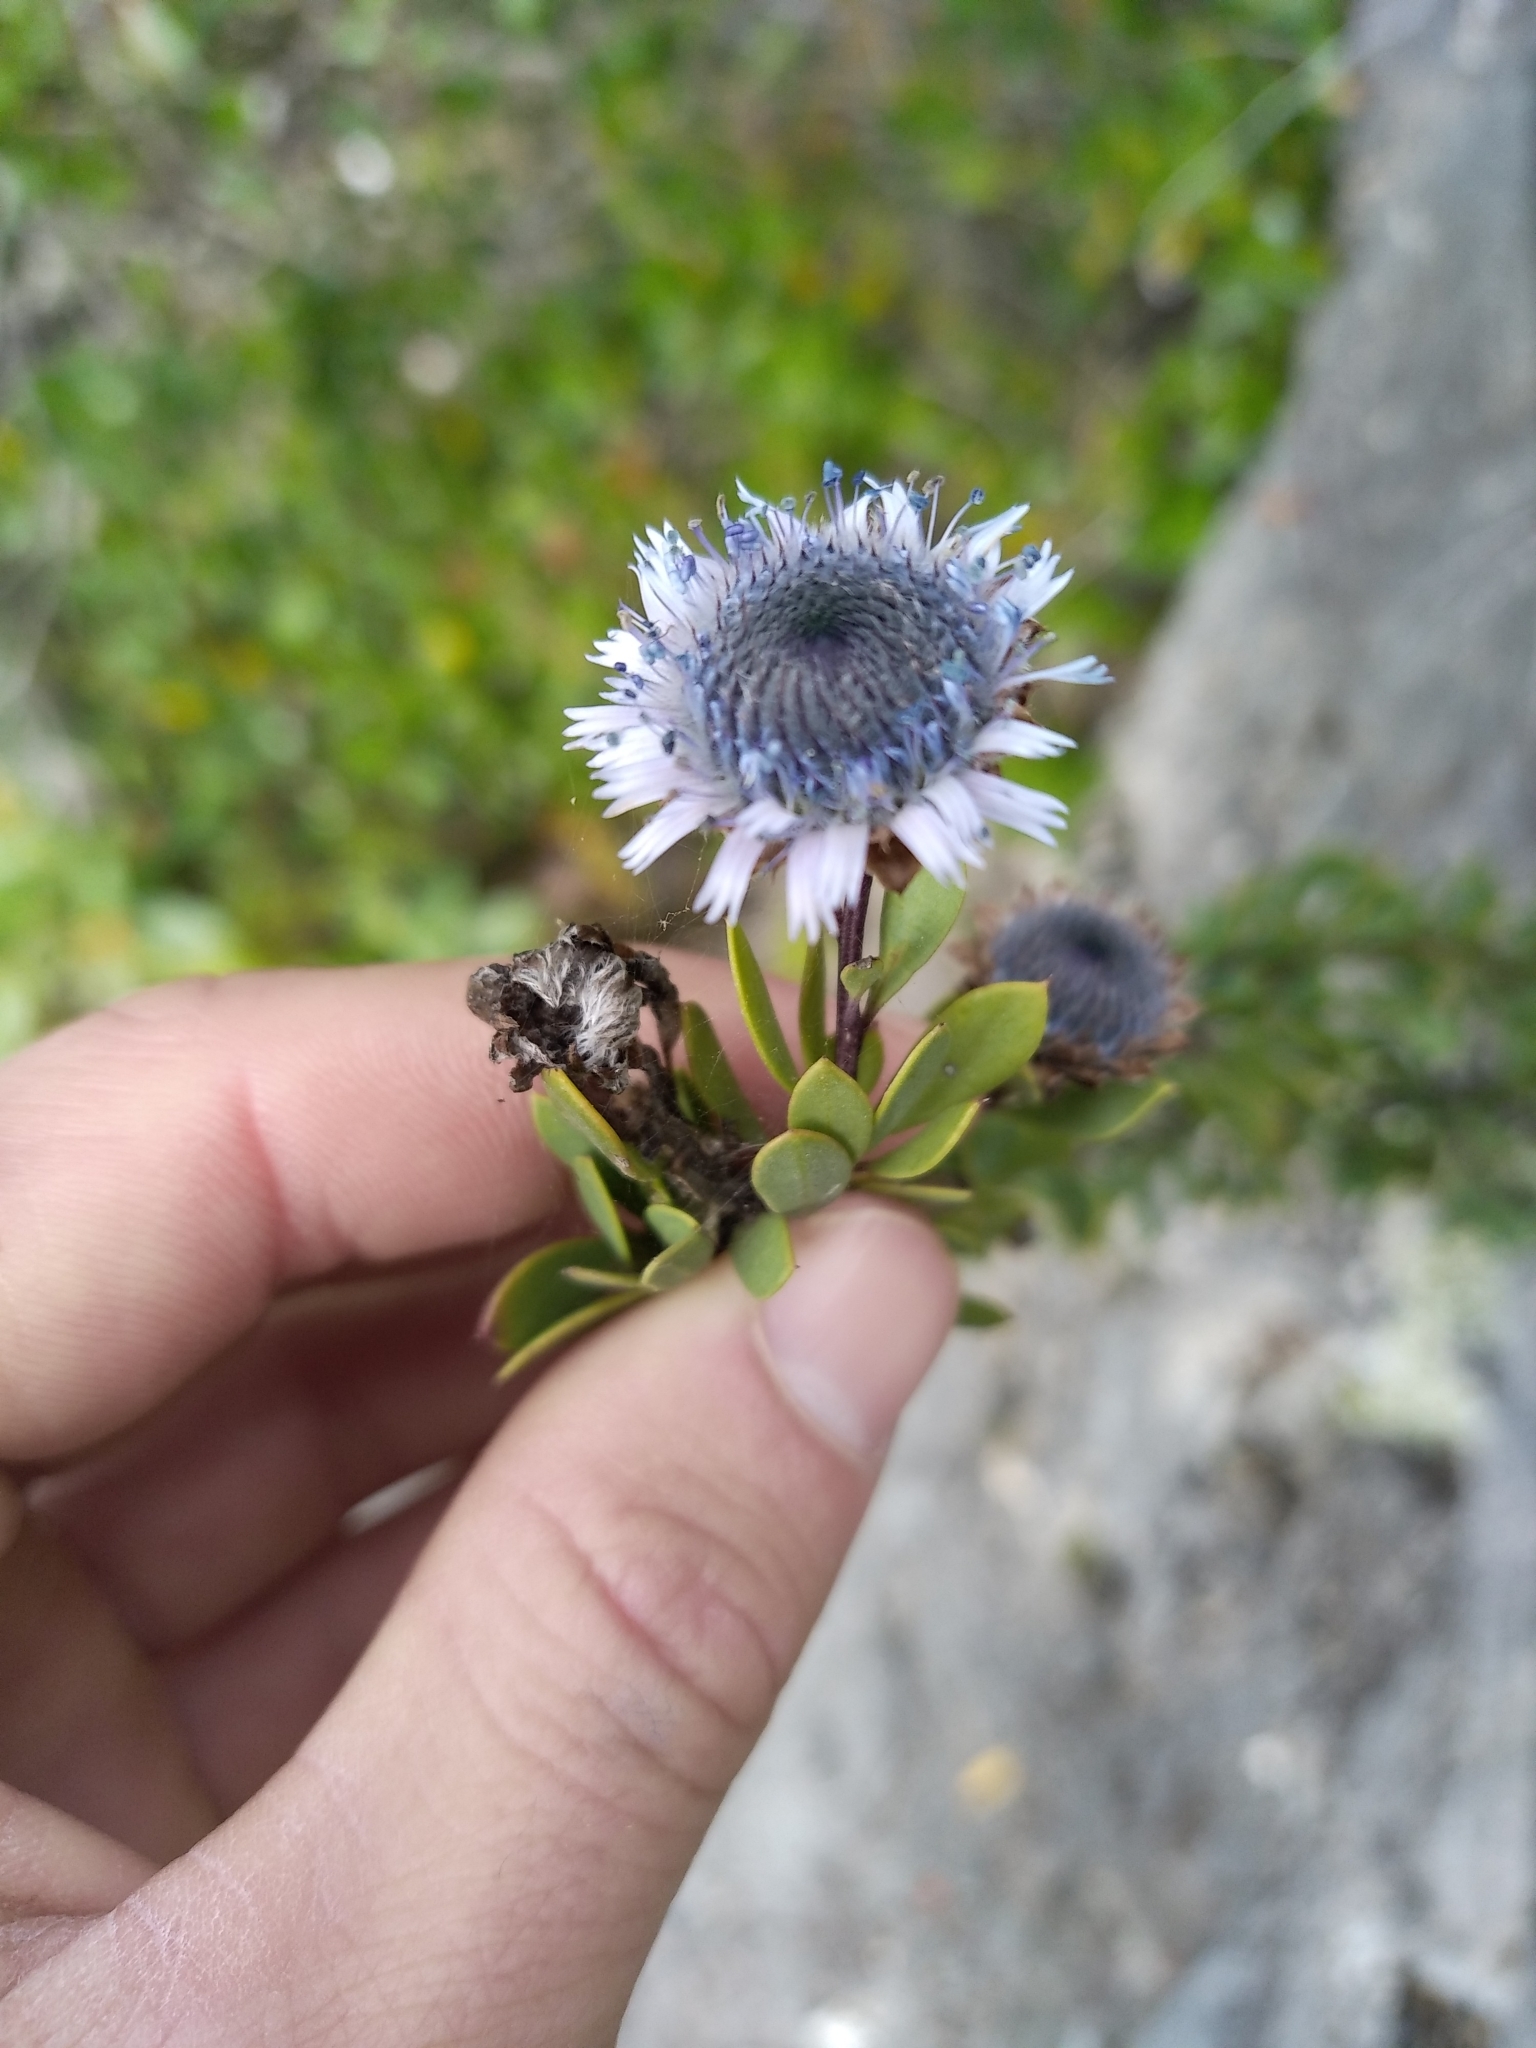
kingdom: Plantae
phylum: Tracheophyta
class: Magnoliopsida
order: Lamiales
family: Plantaginaceae
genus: Globularia
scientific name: Globularia alypum
